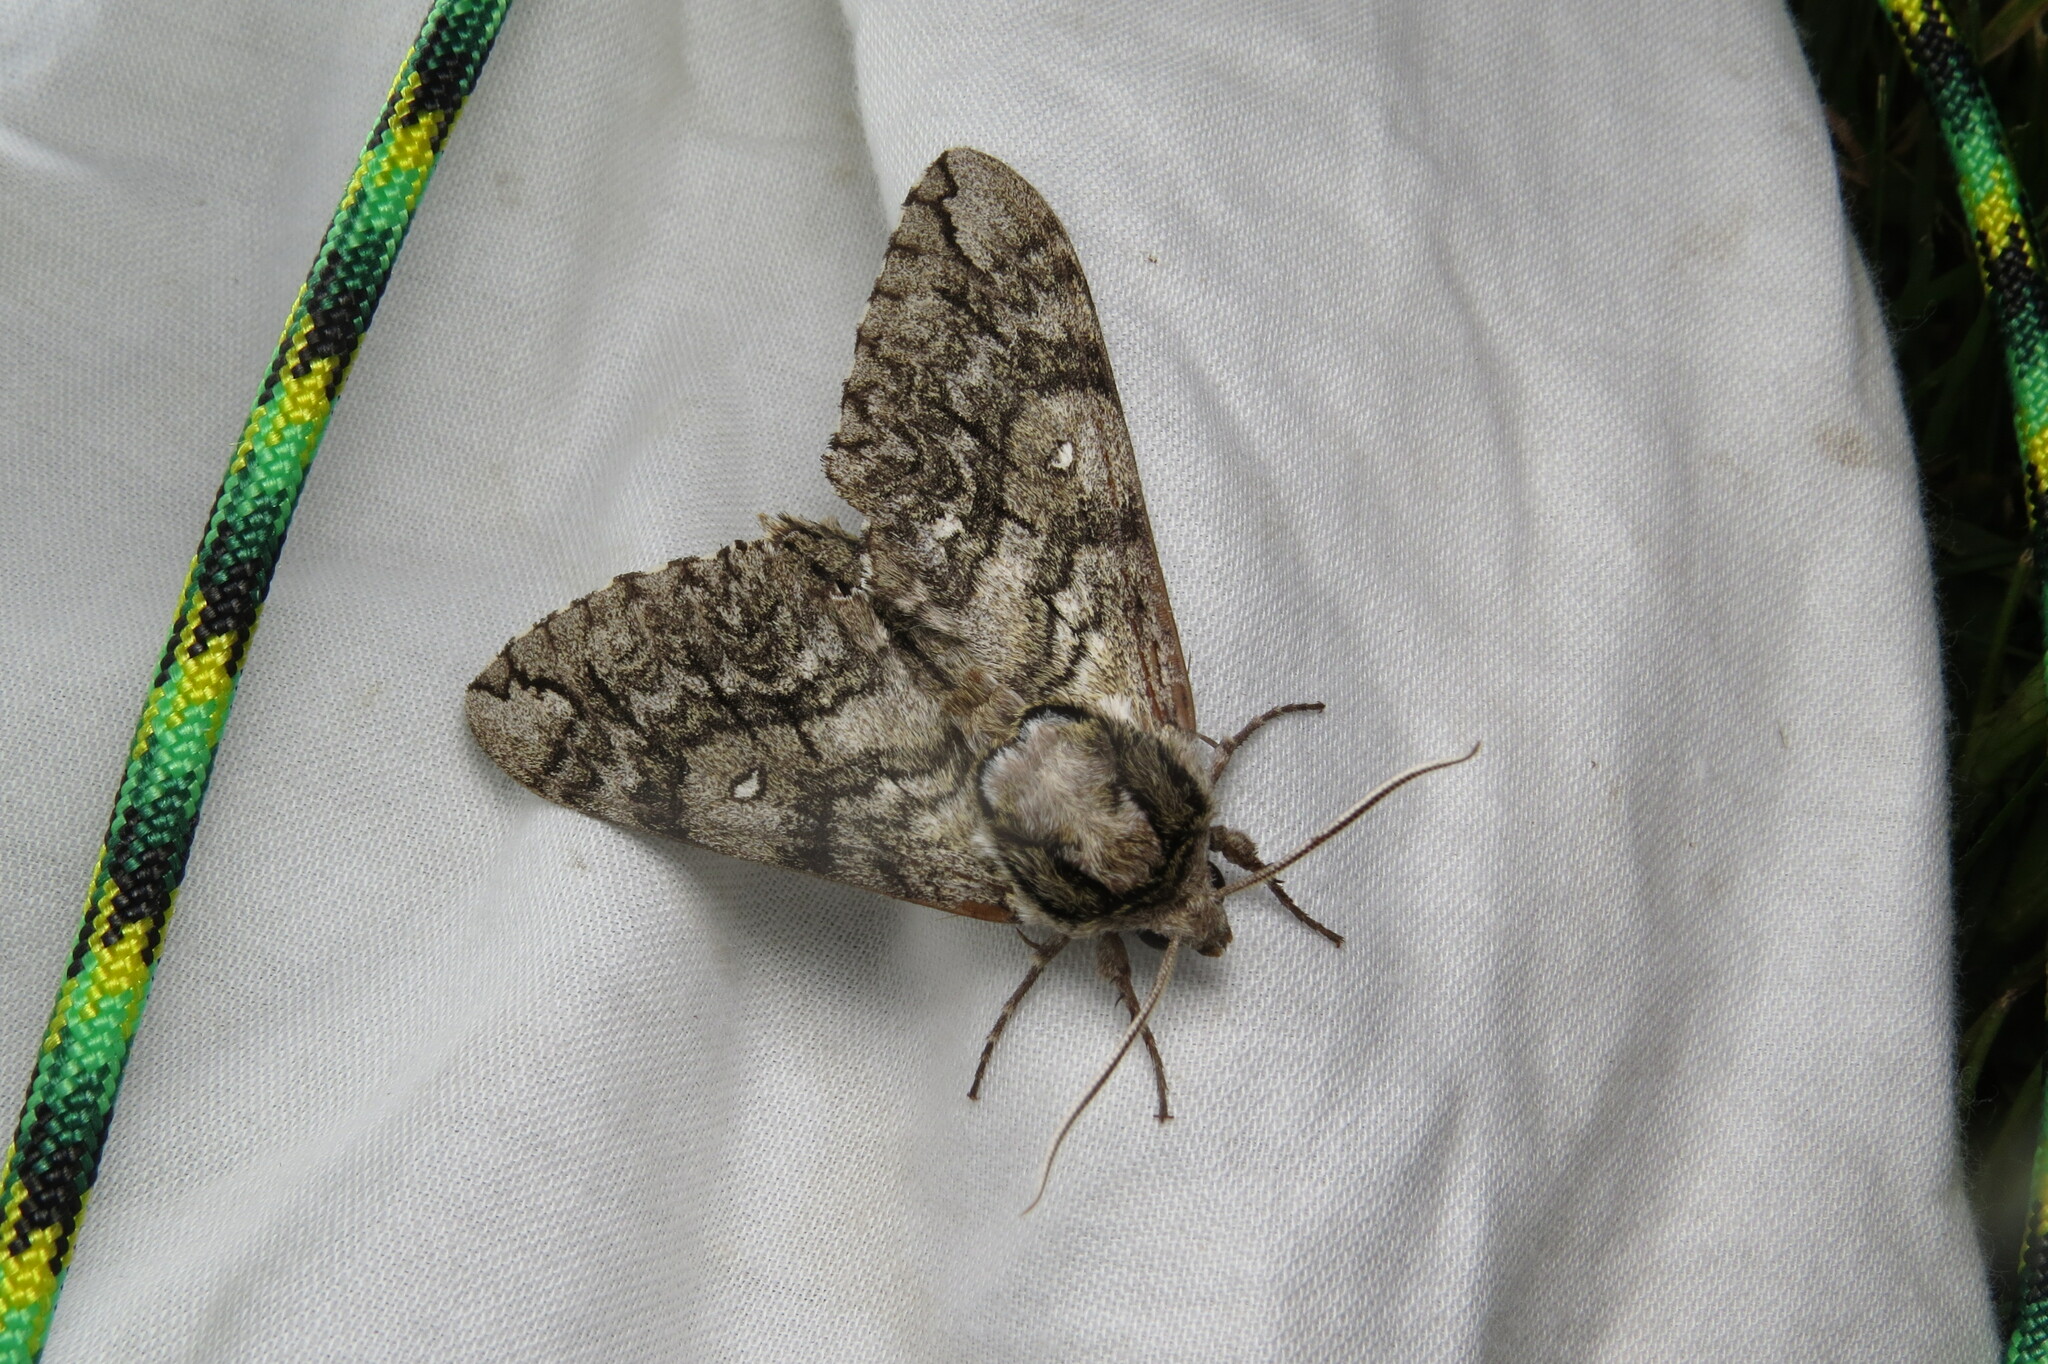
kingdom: Animalia
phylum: Arthropoda
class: Insecta
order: Lepidoptera
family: Sphingidae
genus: Ceratomia
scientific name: Ceratomia undulosa
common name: Waved sphinx
